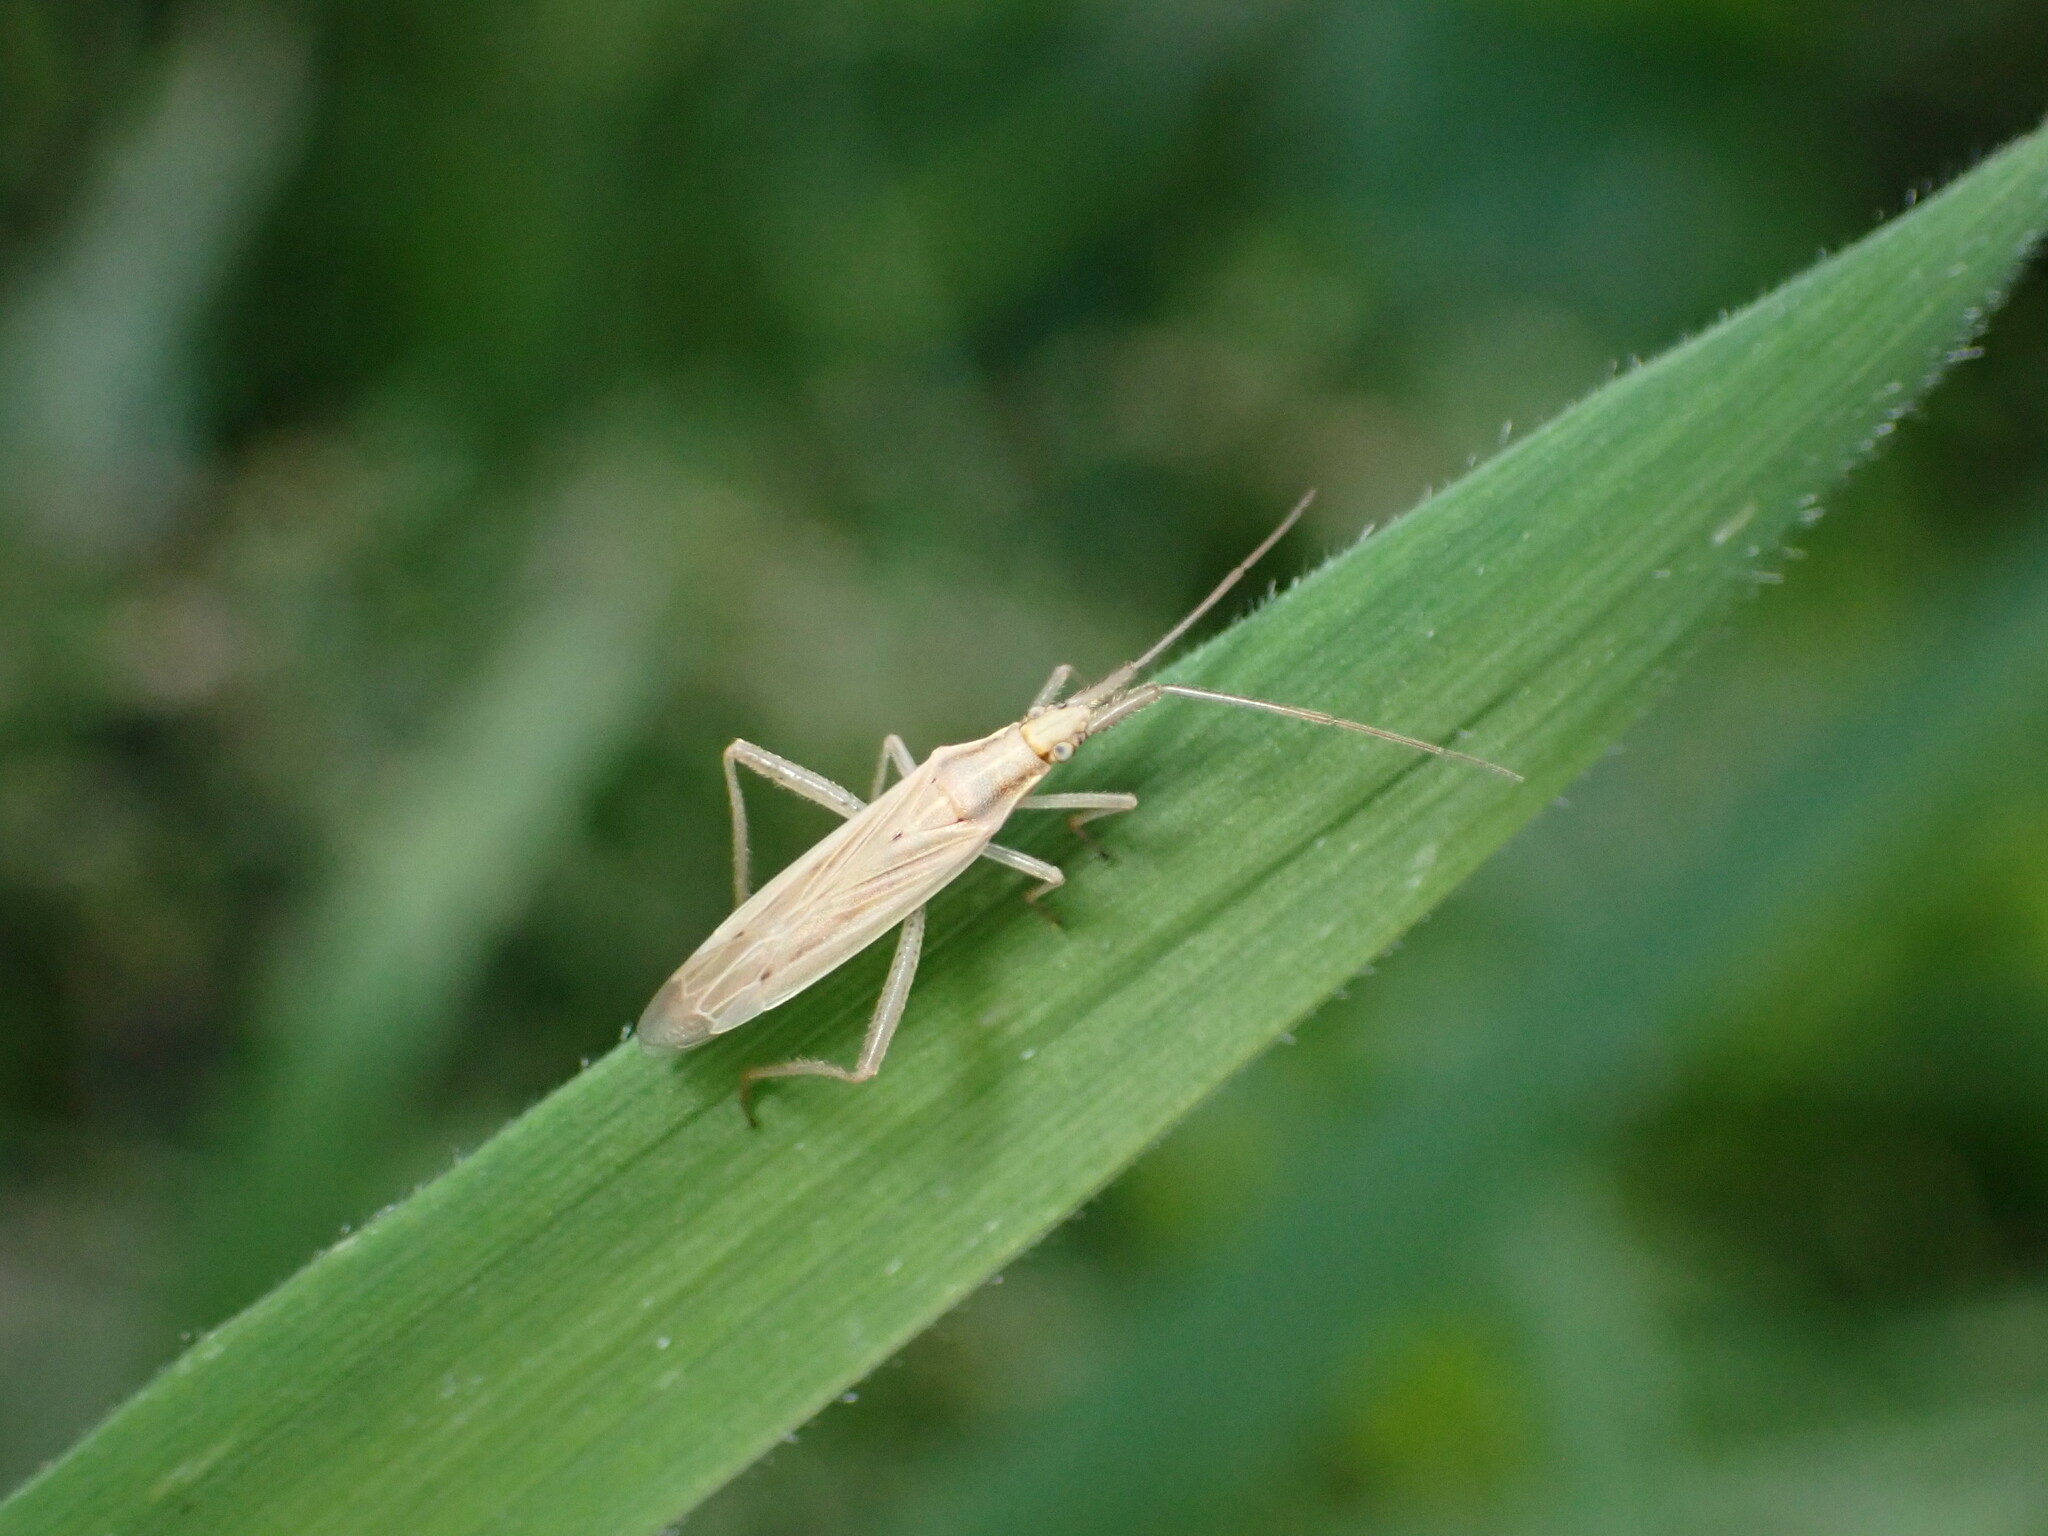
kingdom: Animalia
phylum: Arthropoda
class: Insecta
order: Hemiptera
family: Miridae
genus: Stenodema
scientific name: Stenodema laevigata
